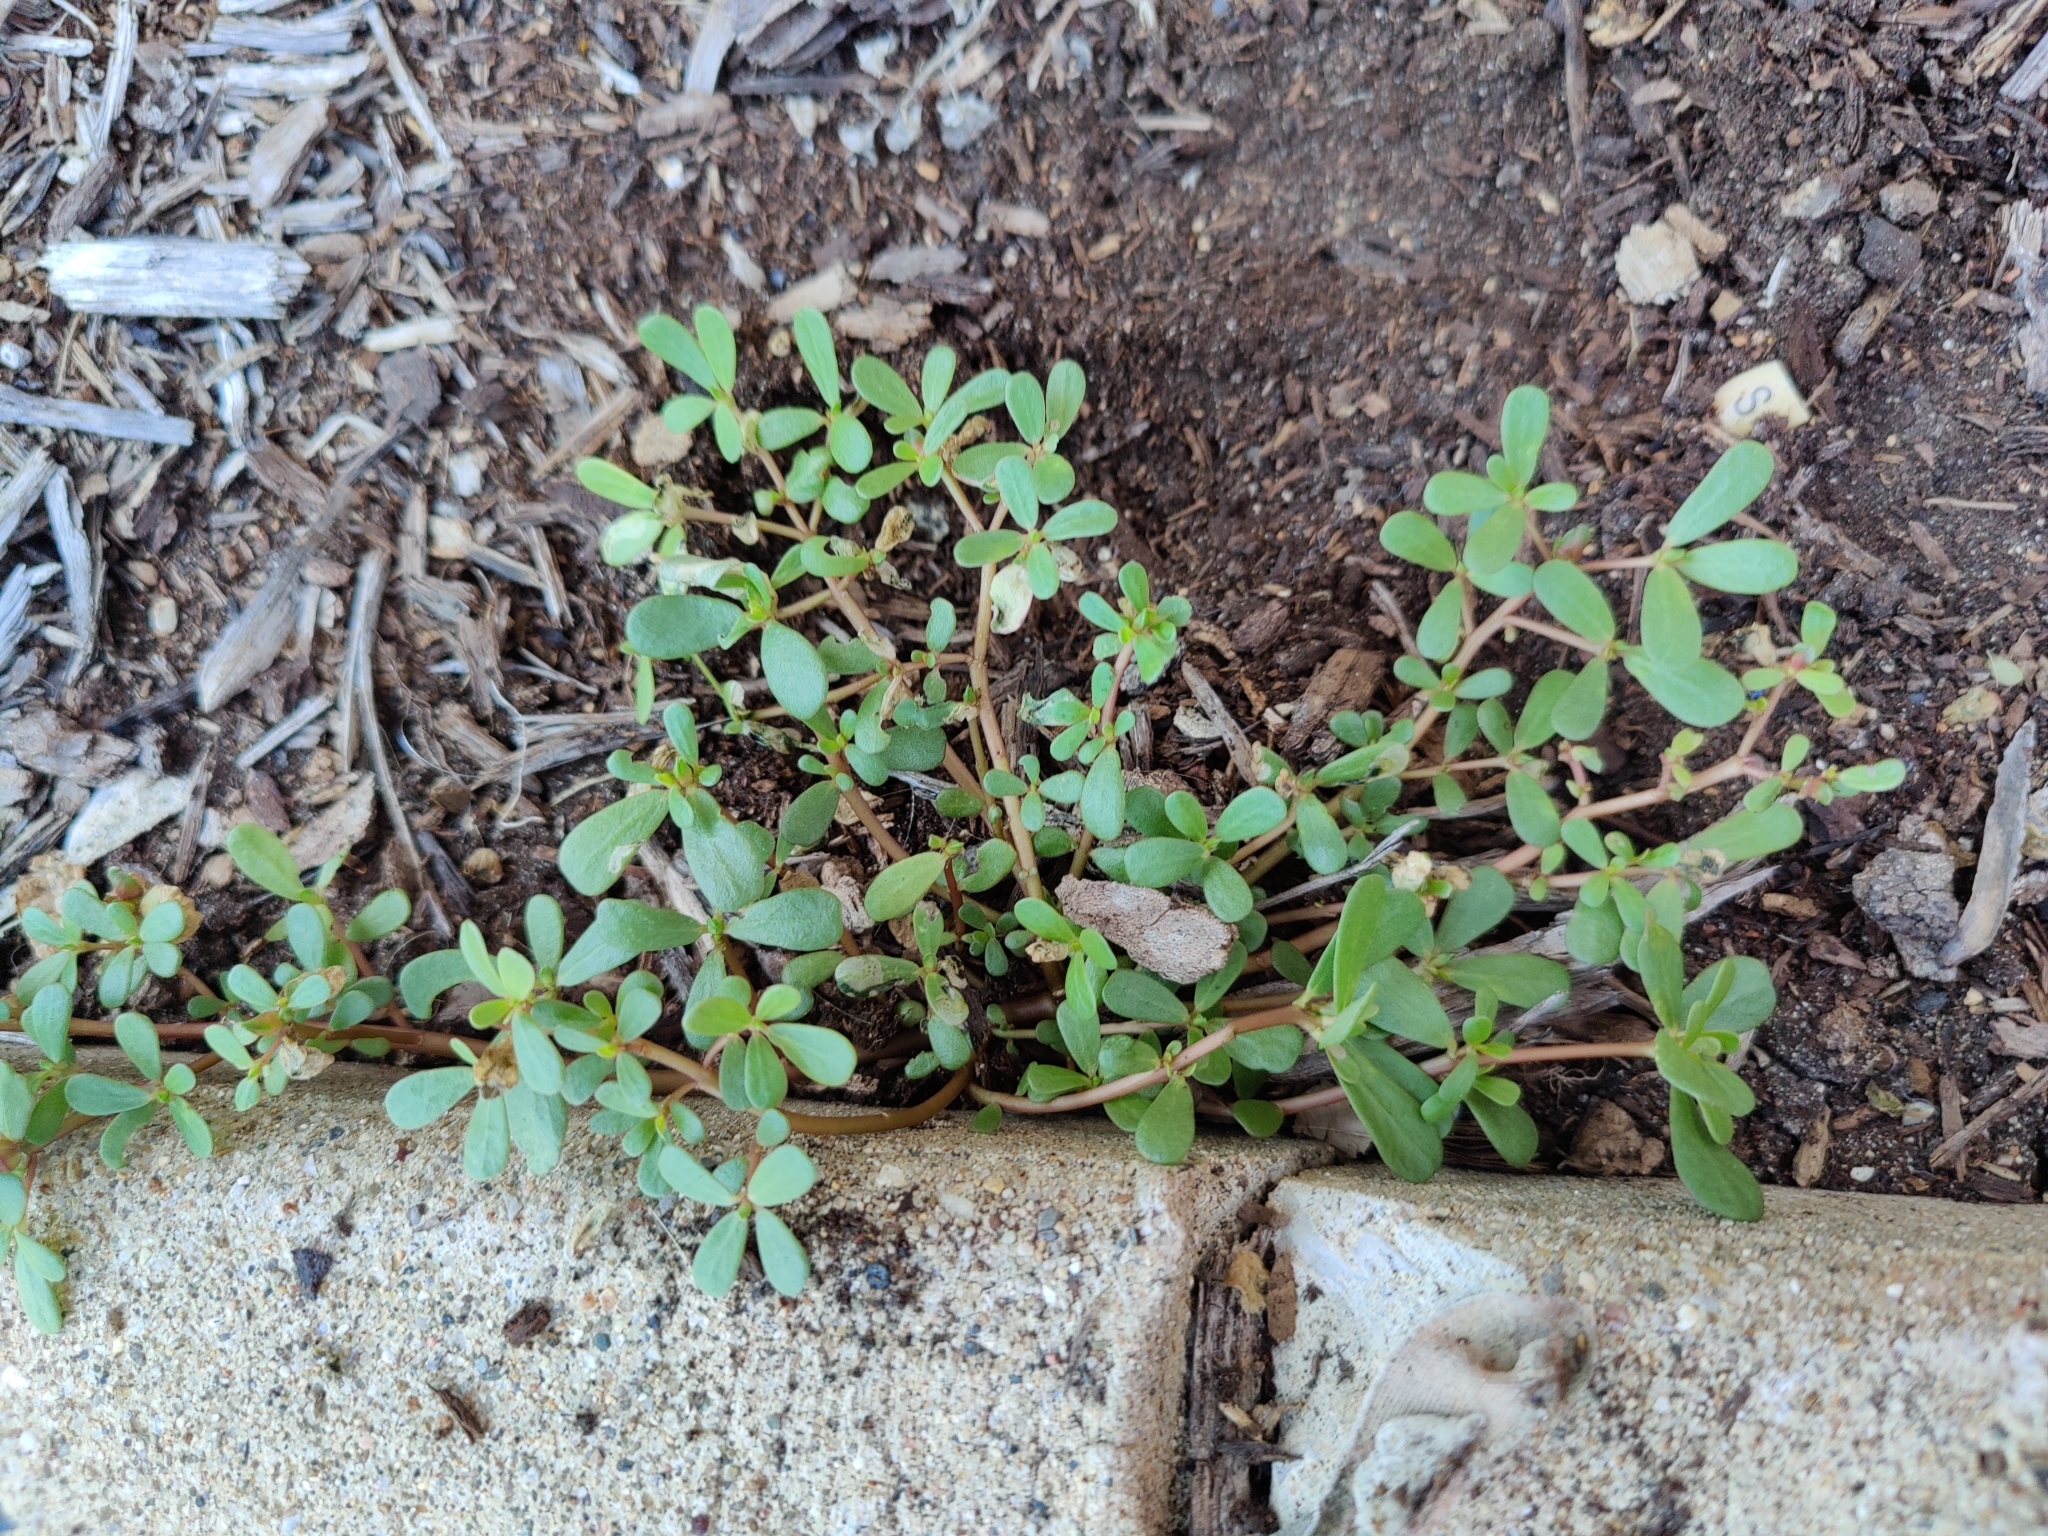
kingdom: Plantae
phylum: Tracheophyta
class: Magnoliopsida
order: Caryophyllales
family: Portulacaceae
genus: Portulaca
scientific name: Portulaca oleracea
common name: Common purslane
